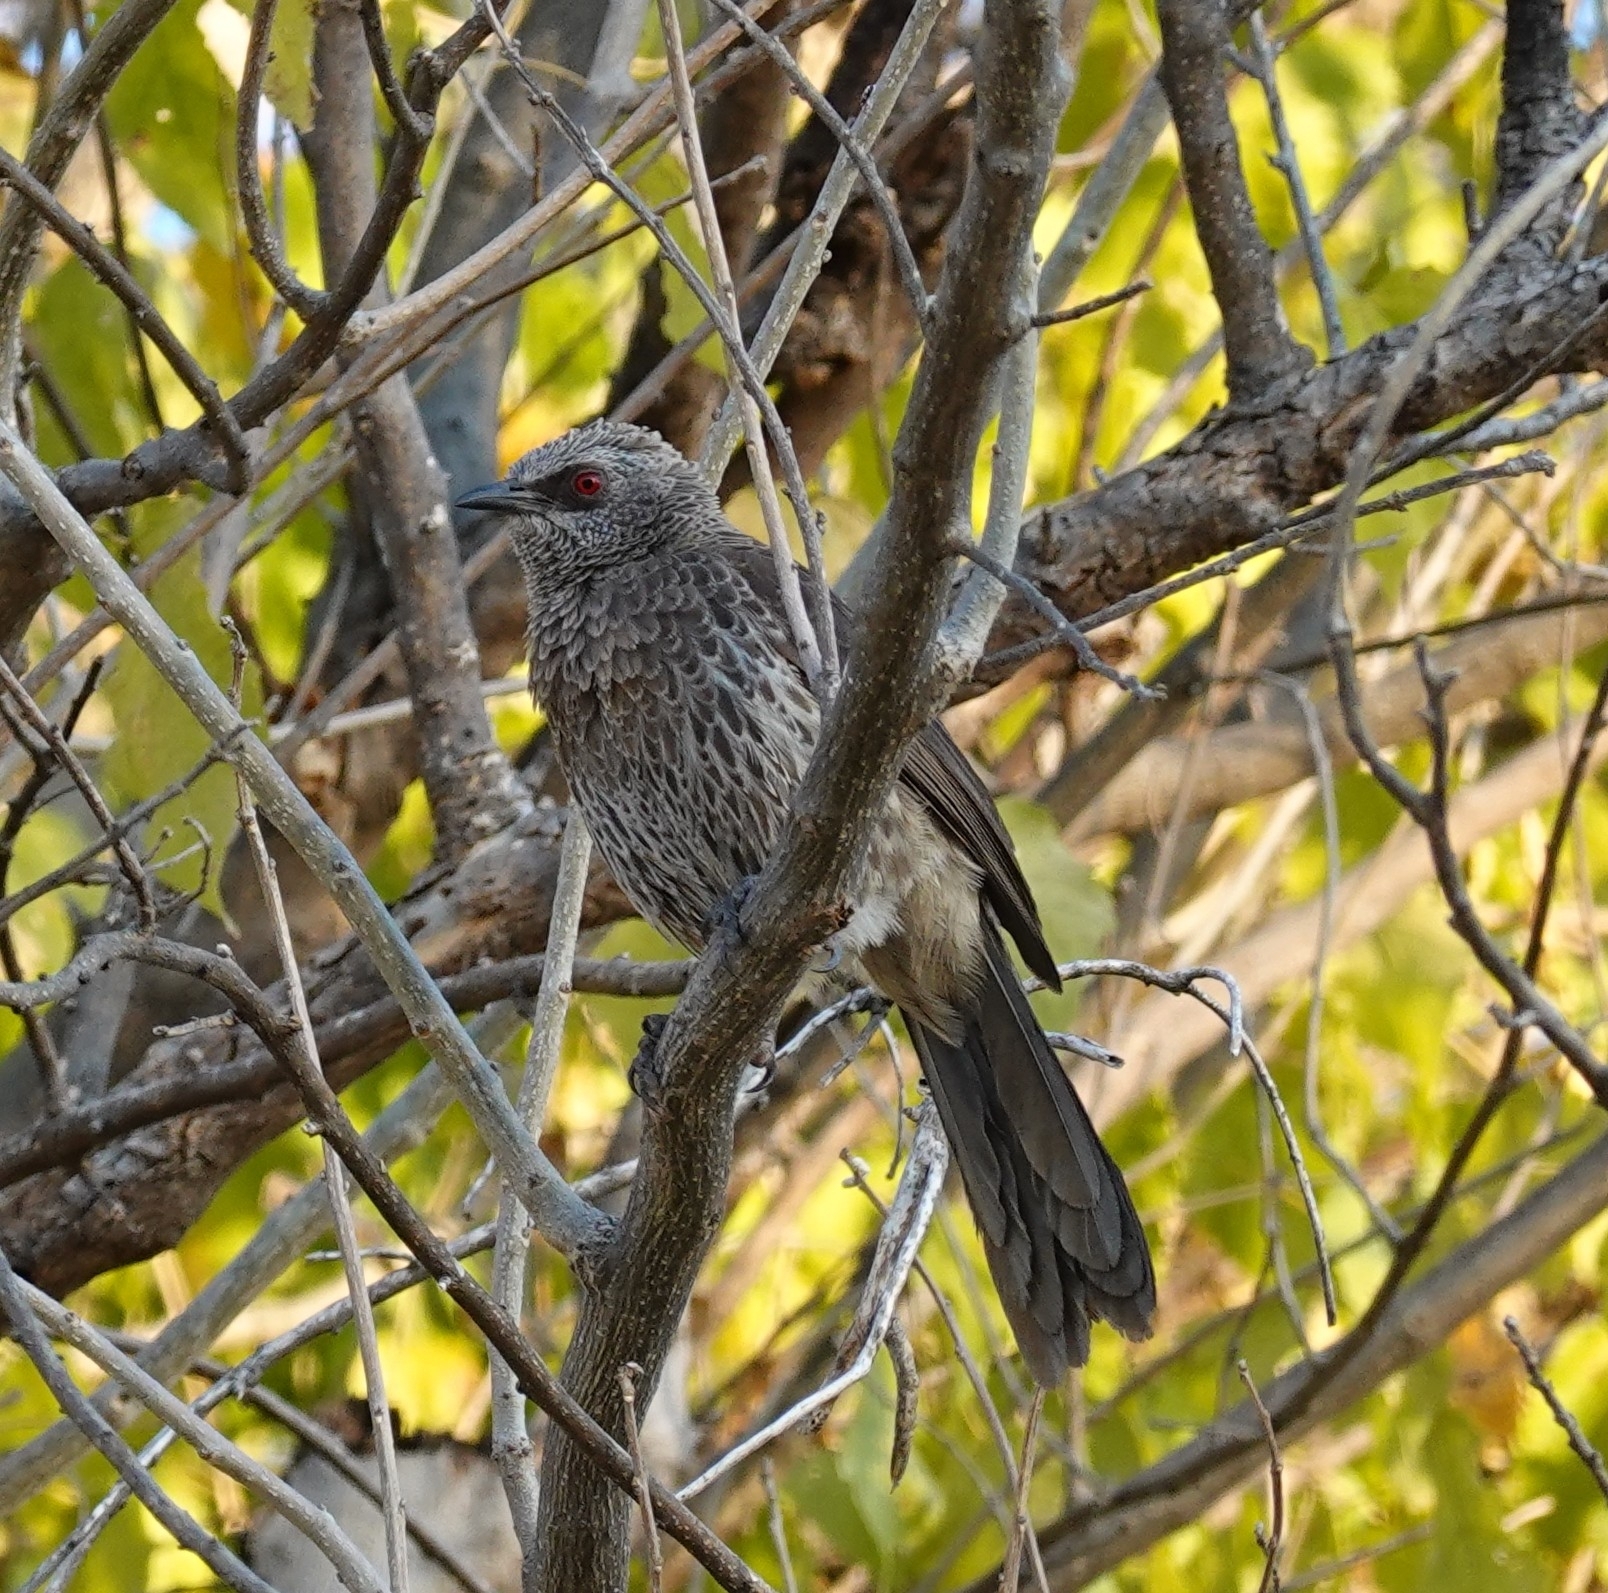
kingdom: Animalia
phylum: Chordata
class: Aves
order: Passeriformes
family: Leiothrichidae
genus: Turdoides
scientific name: Turdoides hartlaubii
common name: Hartlaub's babbler
